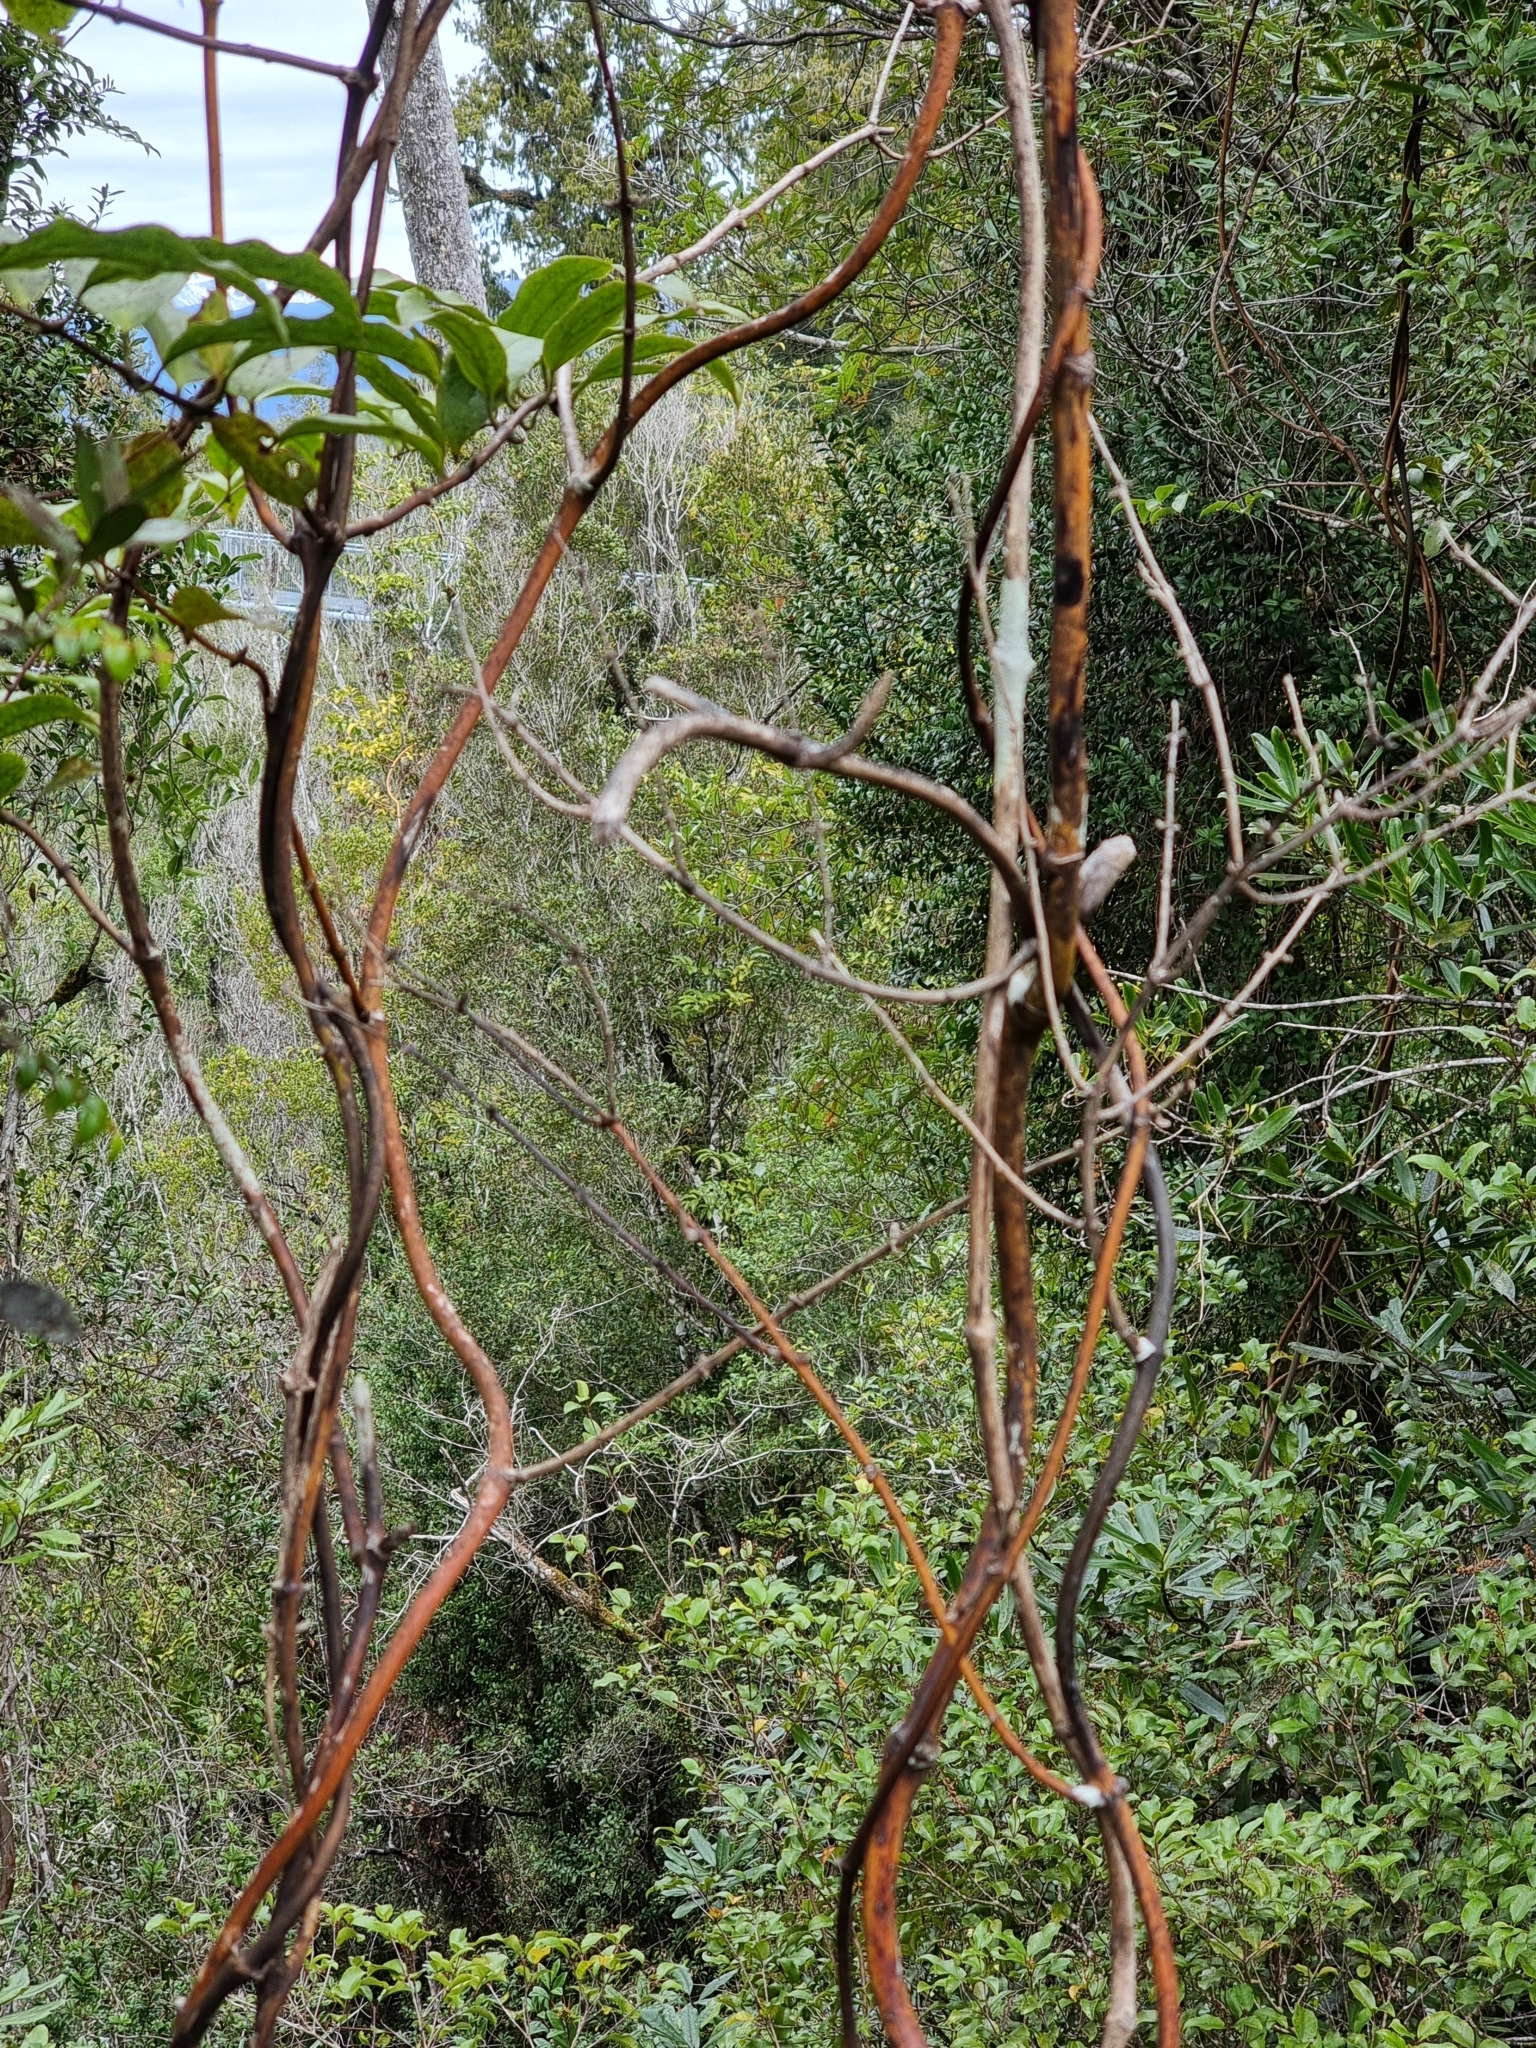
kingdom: Plantae
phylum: Tracheophyta
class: Liliopsida
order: Liliales
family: Ripogonaceae
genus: Ripogonum
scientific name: Ripogonum scandens
